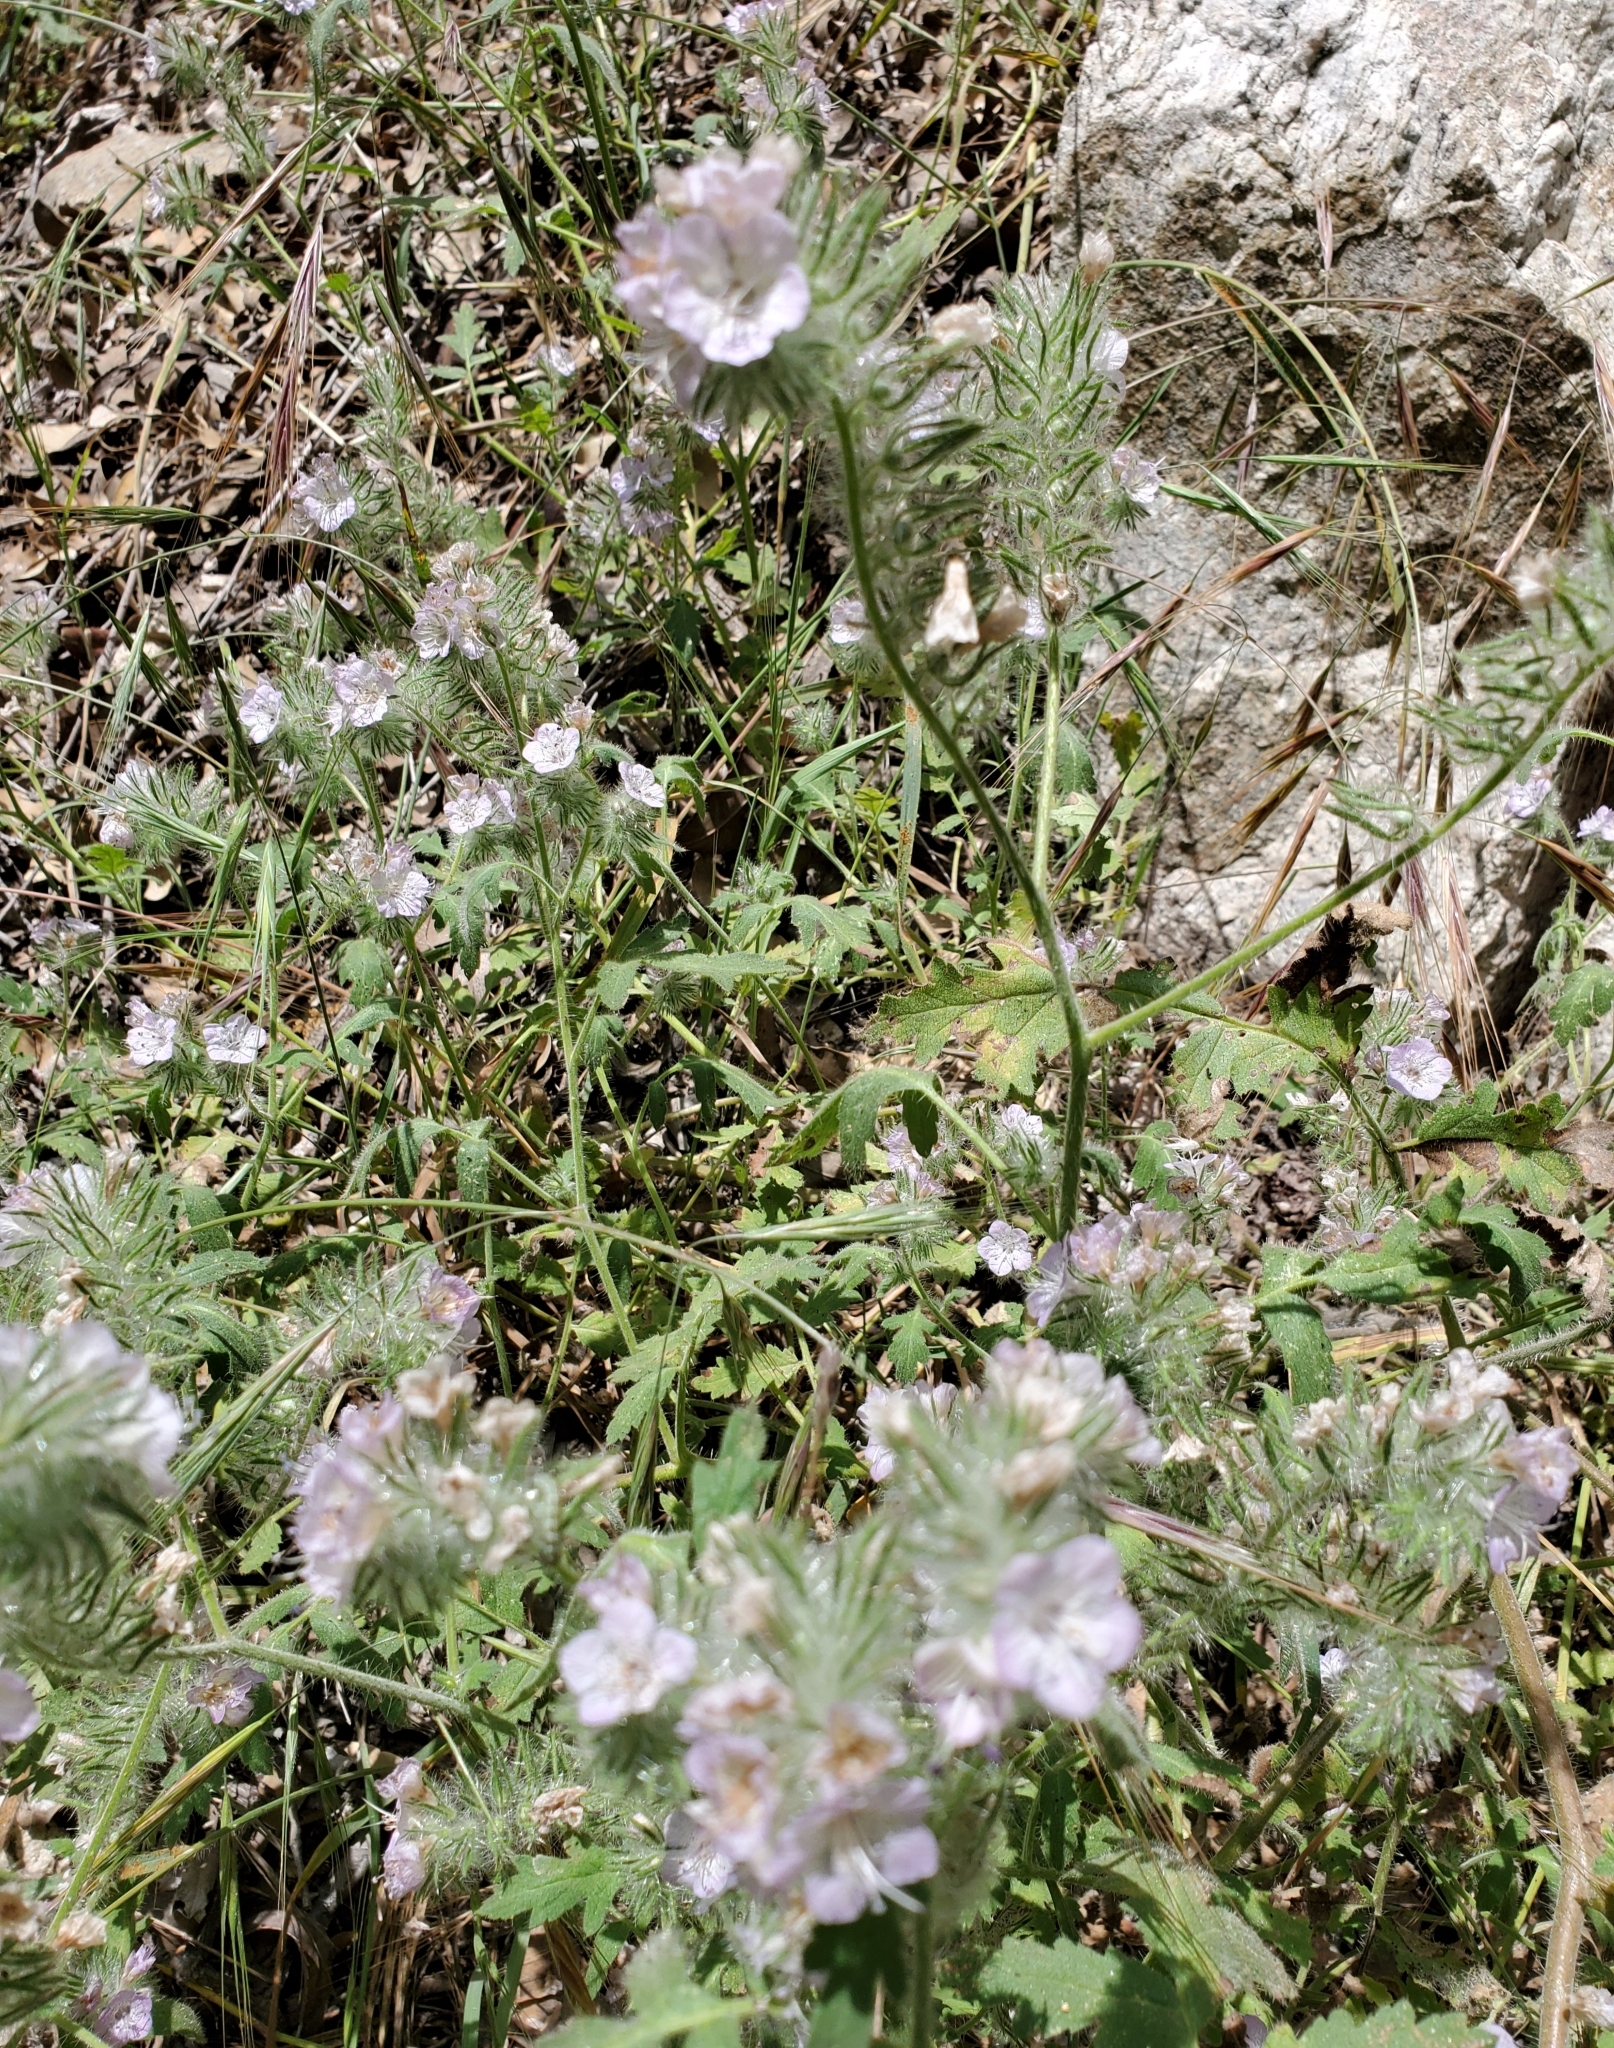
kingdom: Plantae
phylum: Tracheophyta
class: Magnoliopsida
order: Boraginales
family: Hydrophyllaceae
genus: Phacelia
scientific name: Phacelia cicutaria
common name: Caterpillar phacelia
